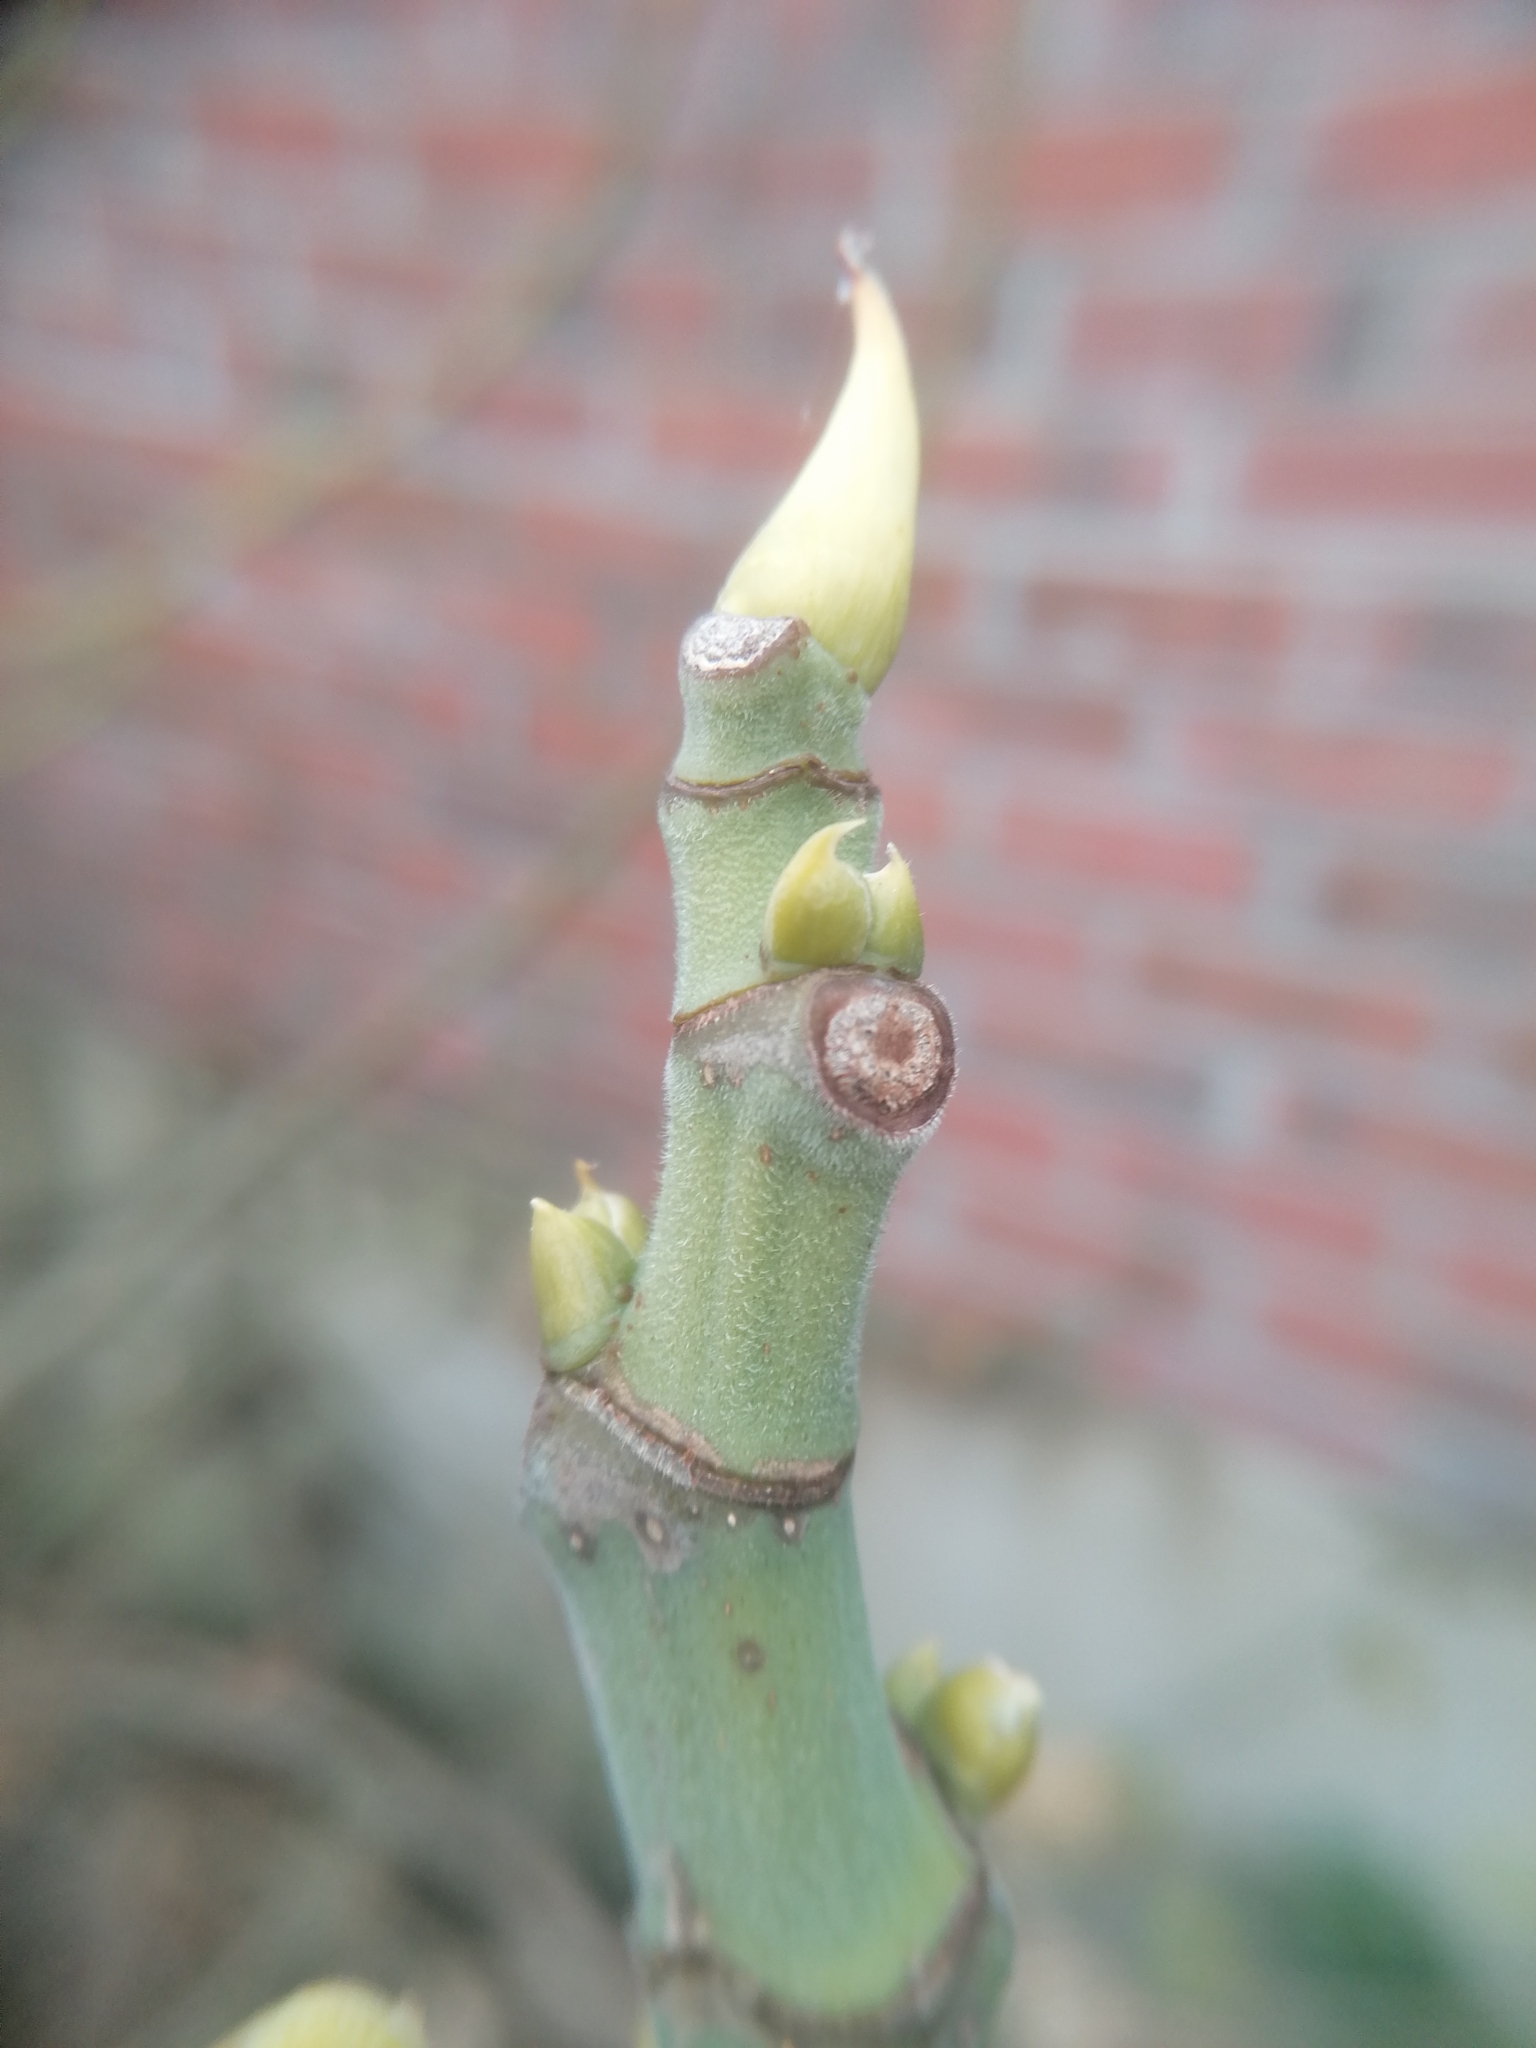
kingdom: Plantae
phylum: Tracheophyta
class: Magnoliopsida
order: Rosales
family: Moraceae
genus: Ficus
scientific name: Ficus carica
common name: Fig
